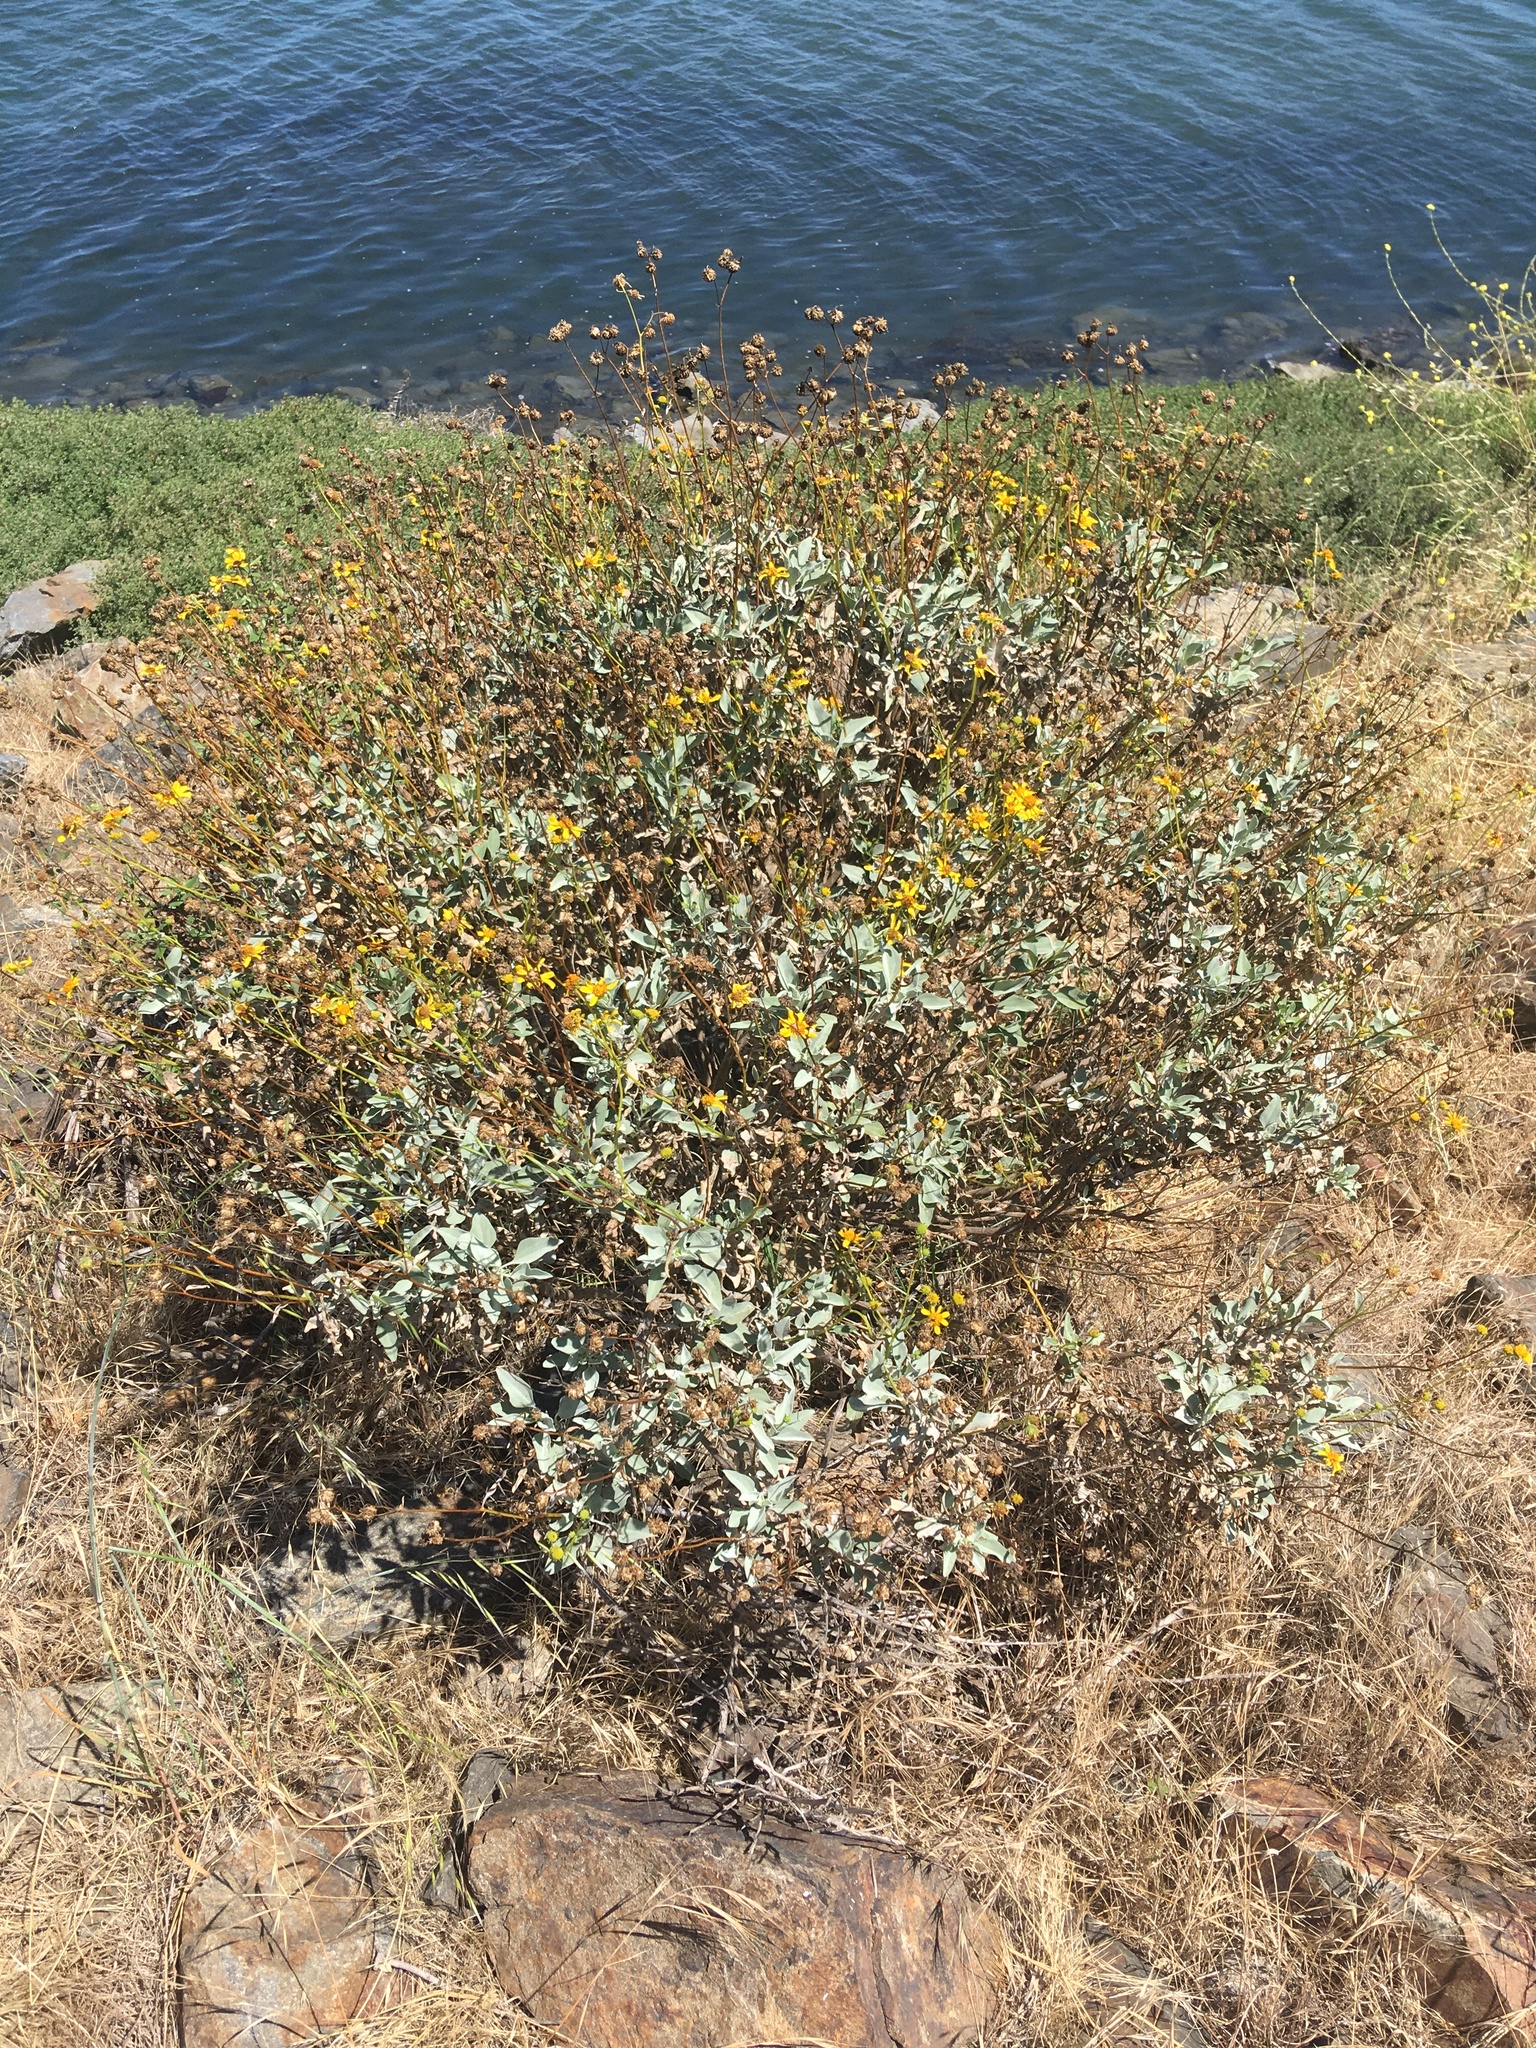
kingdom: Plantae
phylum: Tracheophyta
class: Magnoliopsida
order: Asterales
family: Asteraceae
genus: Encelia
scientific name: Encelia farinosa
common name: Brittlebush
